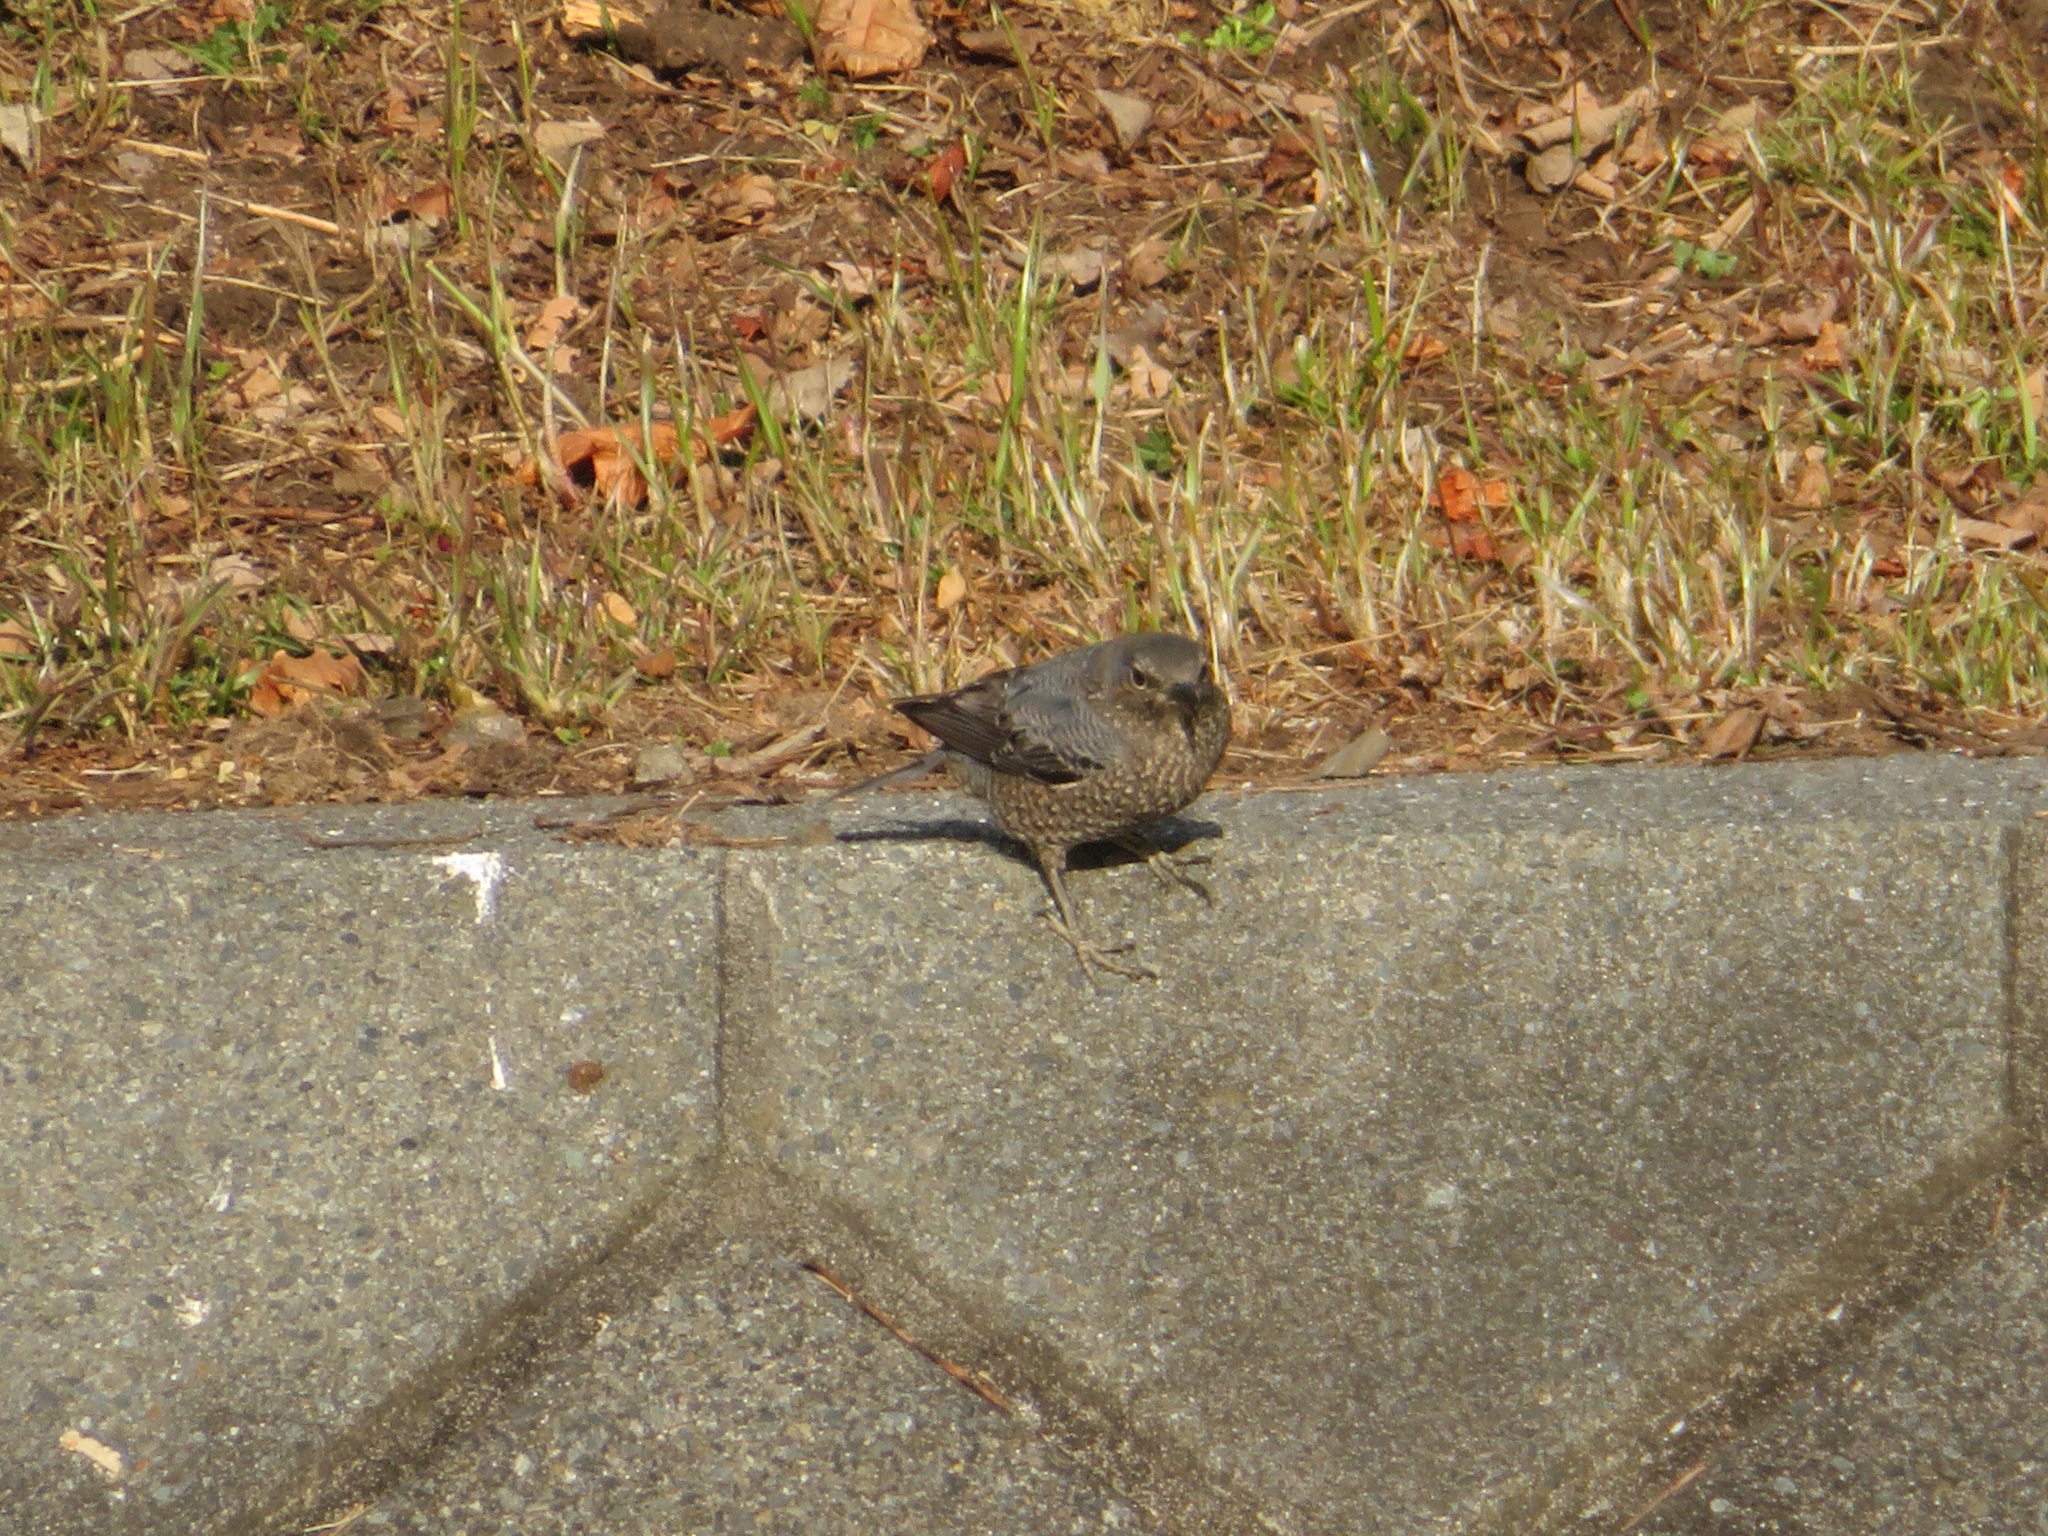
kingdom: Animalia
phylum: Chordata
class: Aves
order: Passeriformes
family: Muscicapidae
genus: Monticola
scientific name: Monticola solitarius
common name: Blue rock thrush
